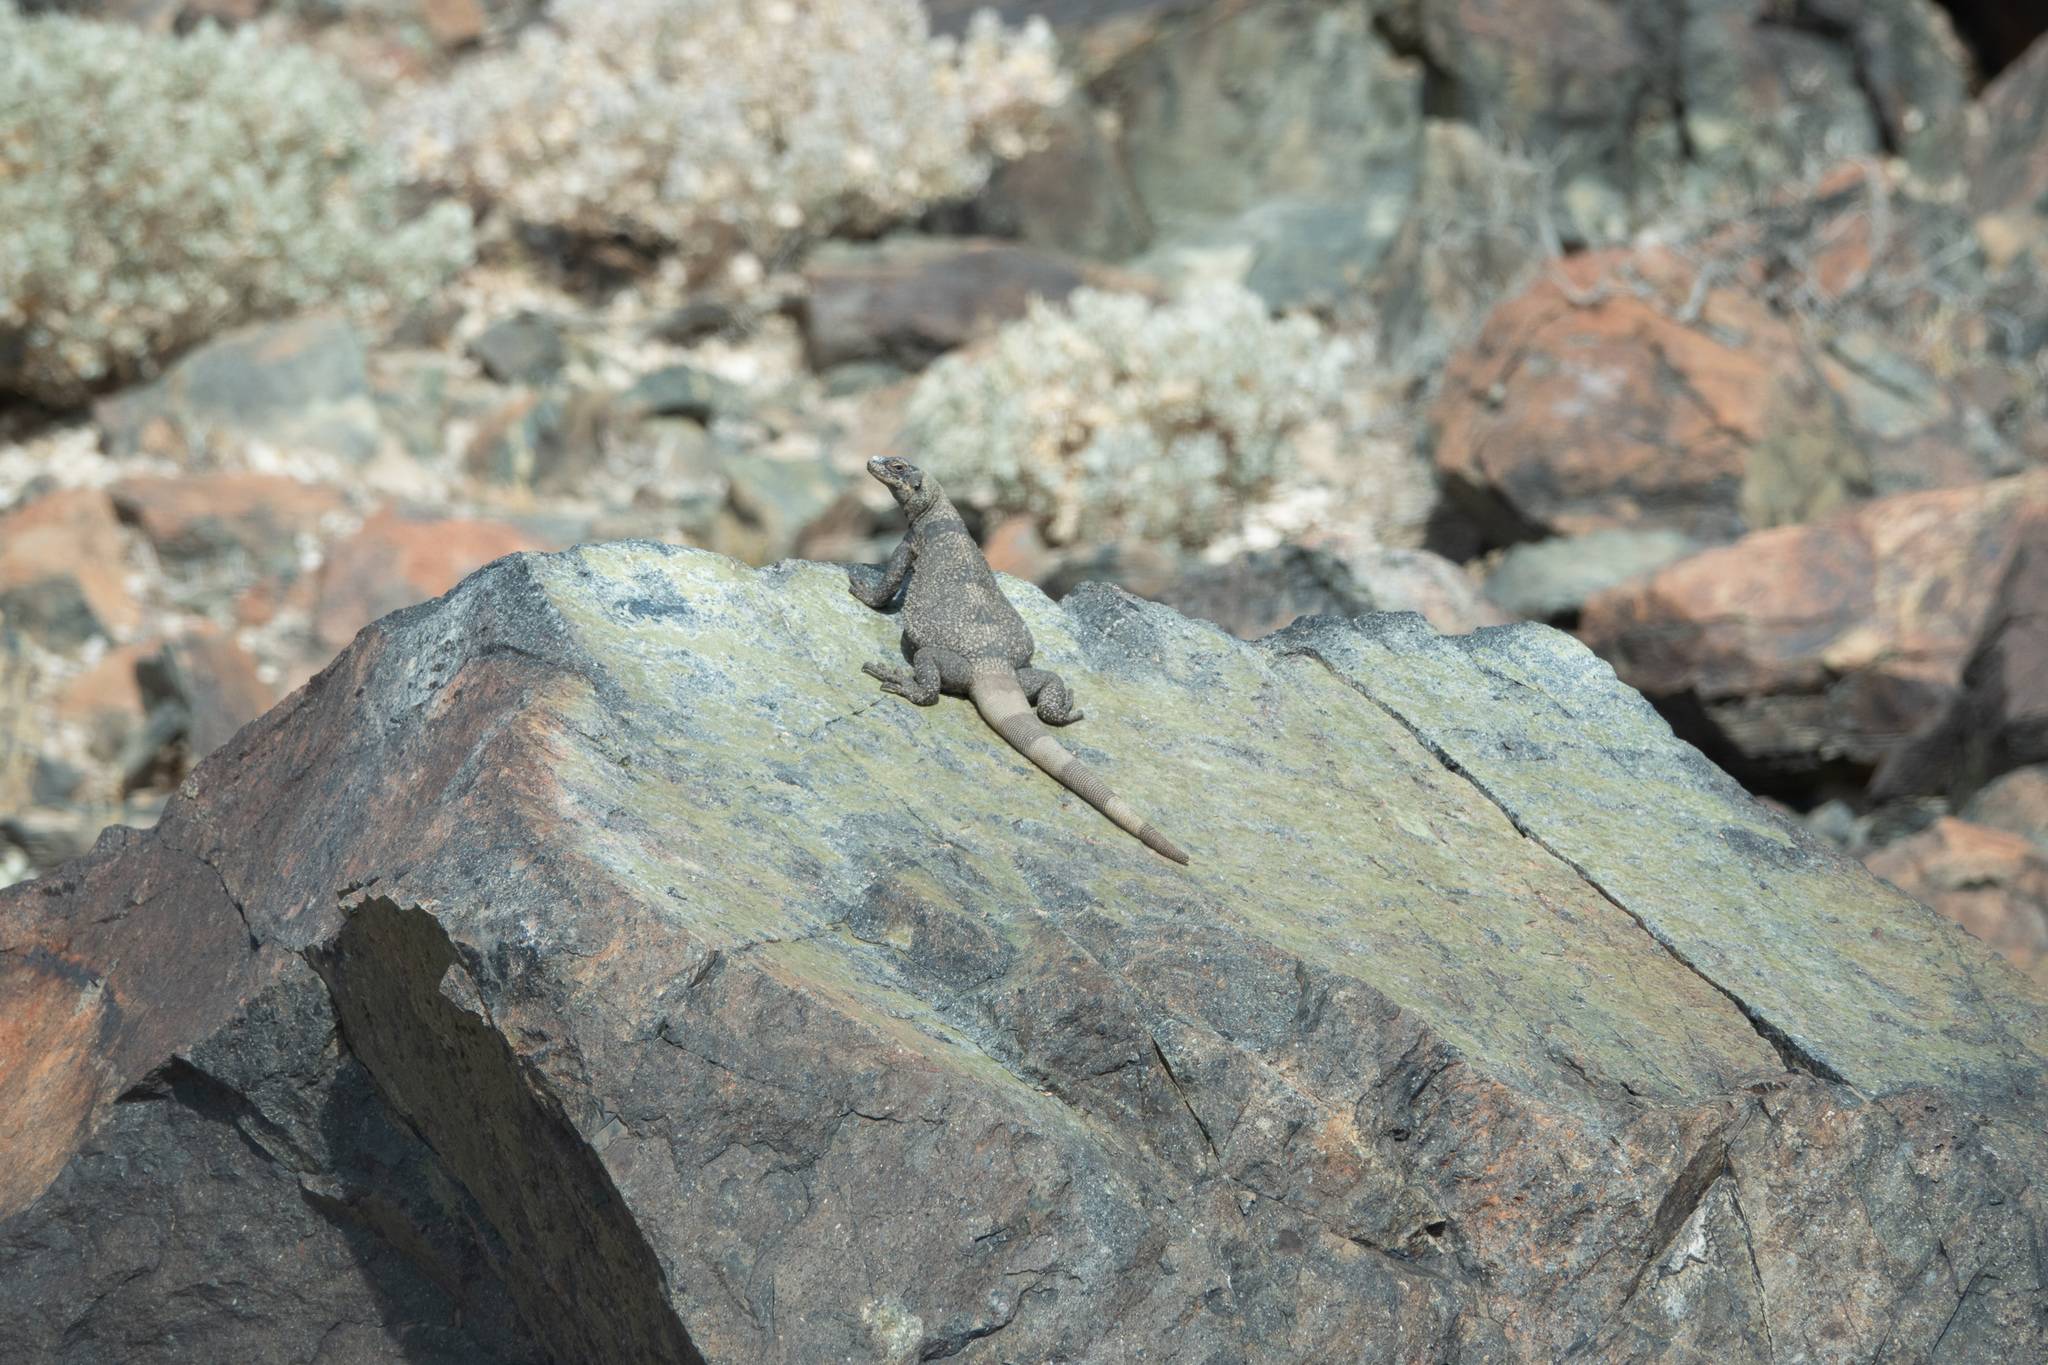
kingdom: Animalia
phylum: Chordata
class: Squamata
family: Iguanidae
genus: Sauromalus
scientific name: Sauromalus ater
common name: Northern chuckwalla
